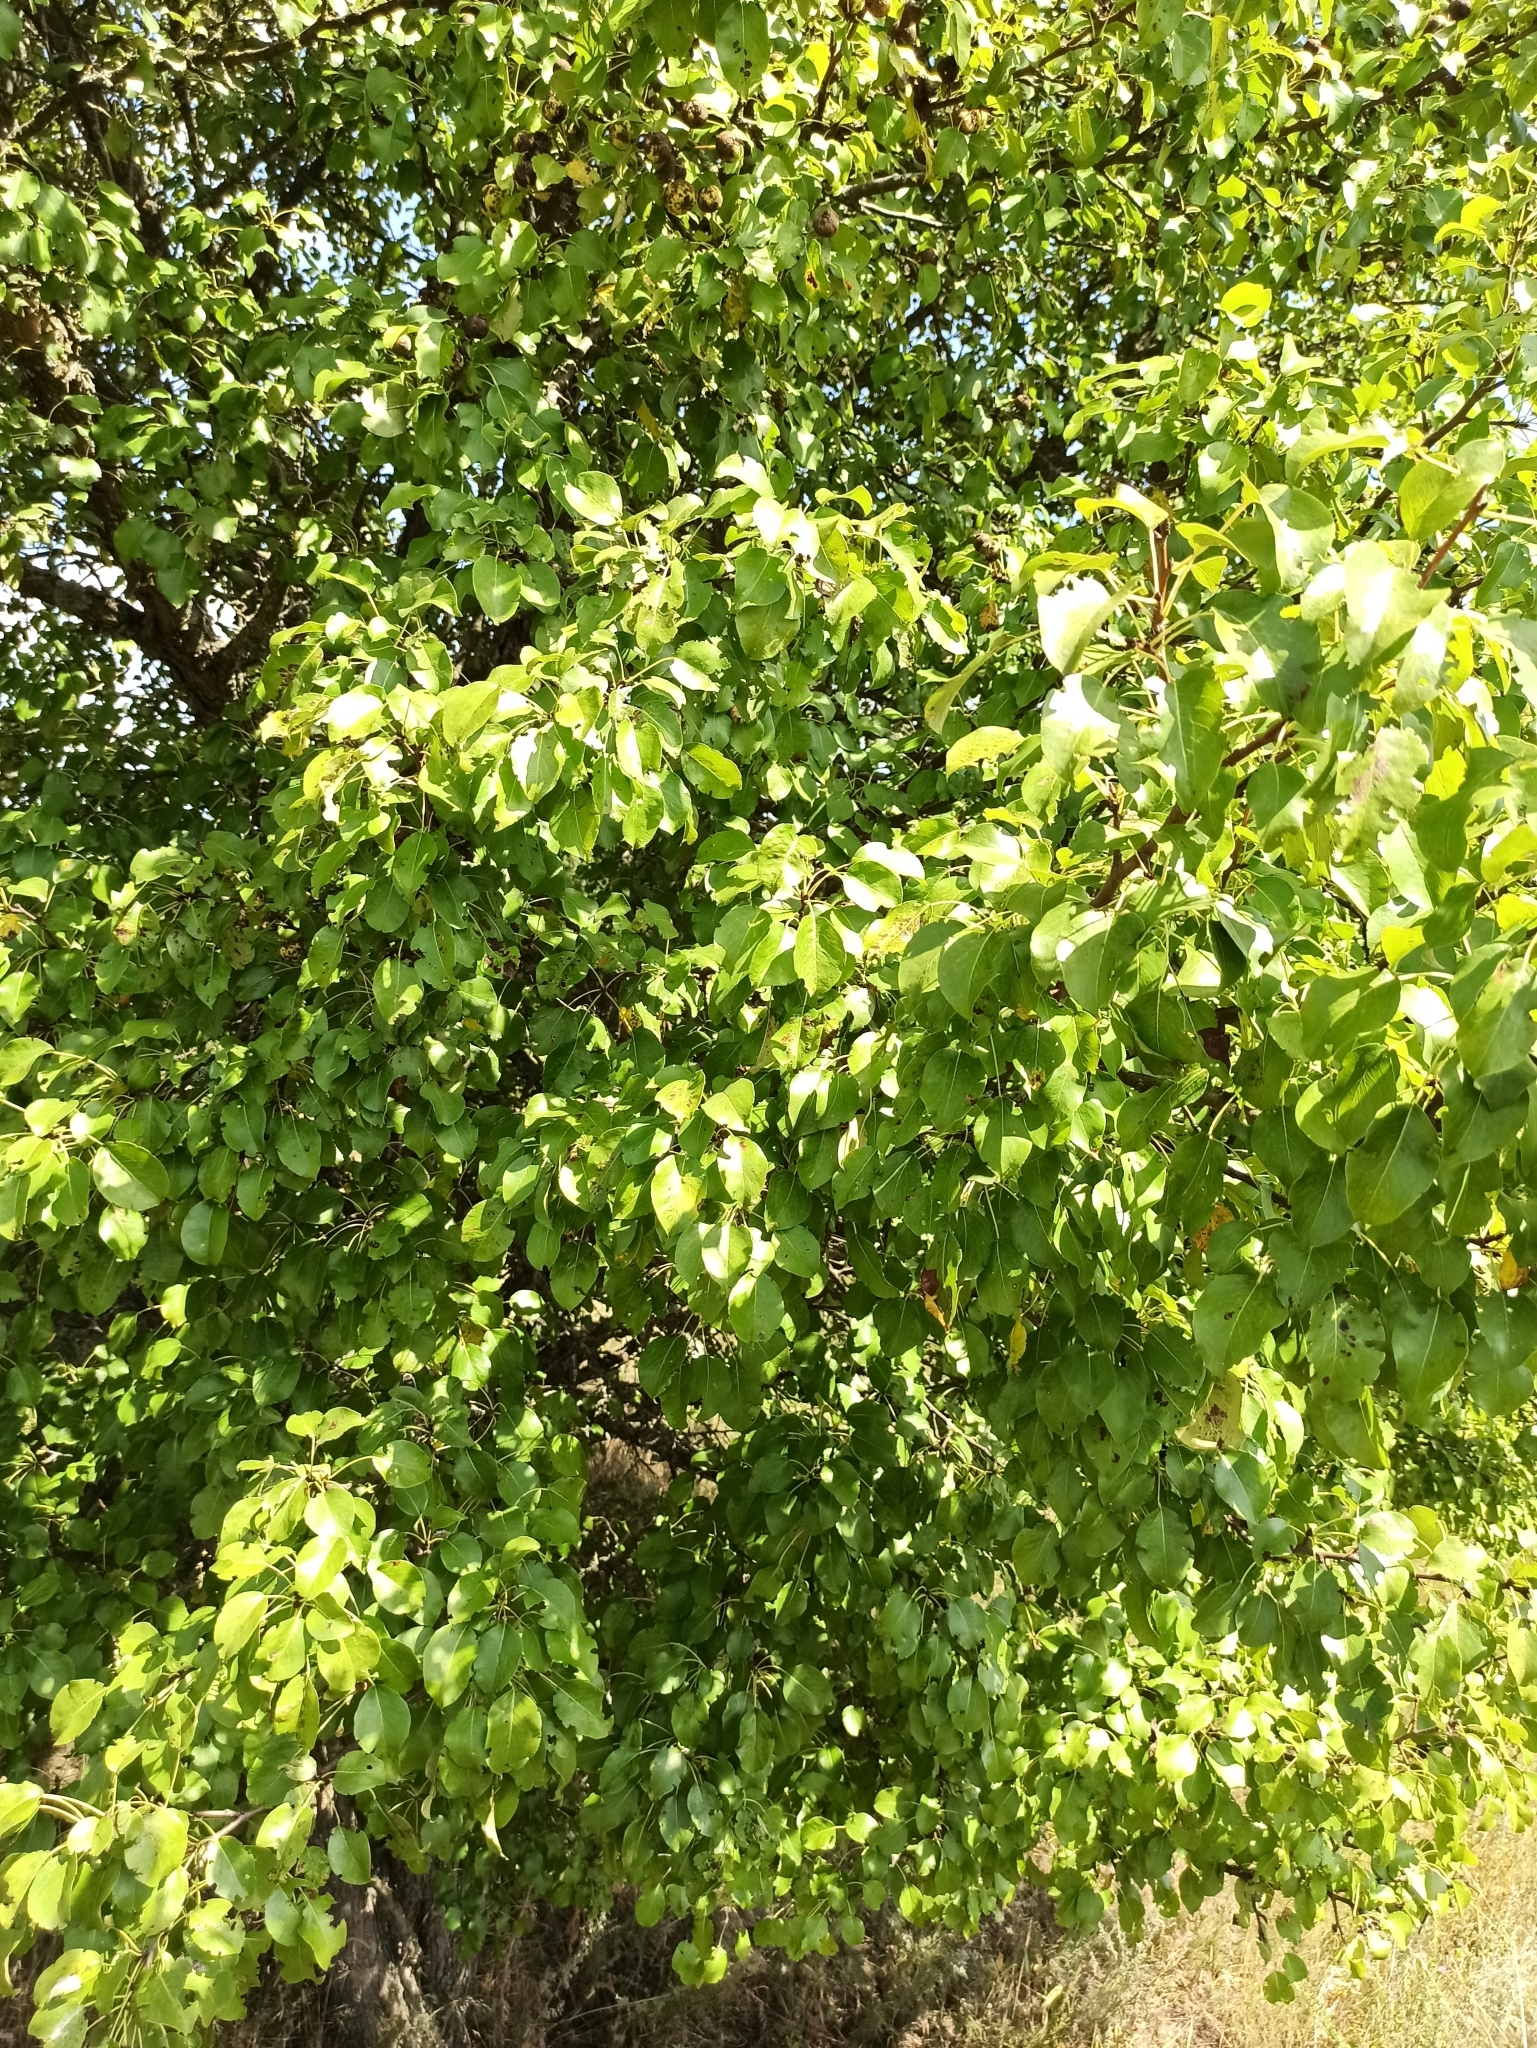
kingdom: Plantae
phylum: Tracheophyta
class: Magnoliopsida
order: Rosales
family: Rosaceae
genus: Pyrus
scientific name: Pyrus communis
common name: Pear
